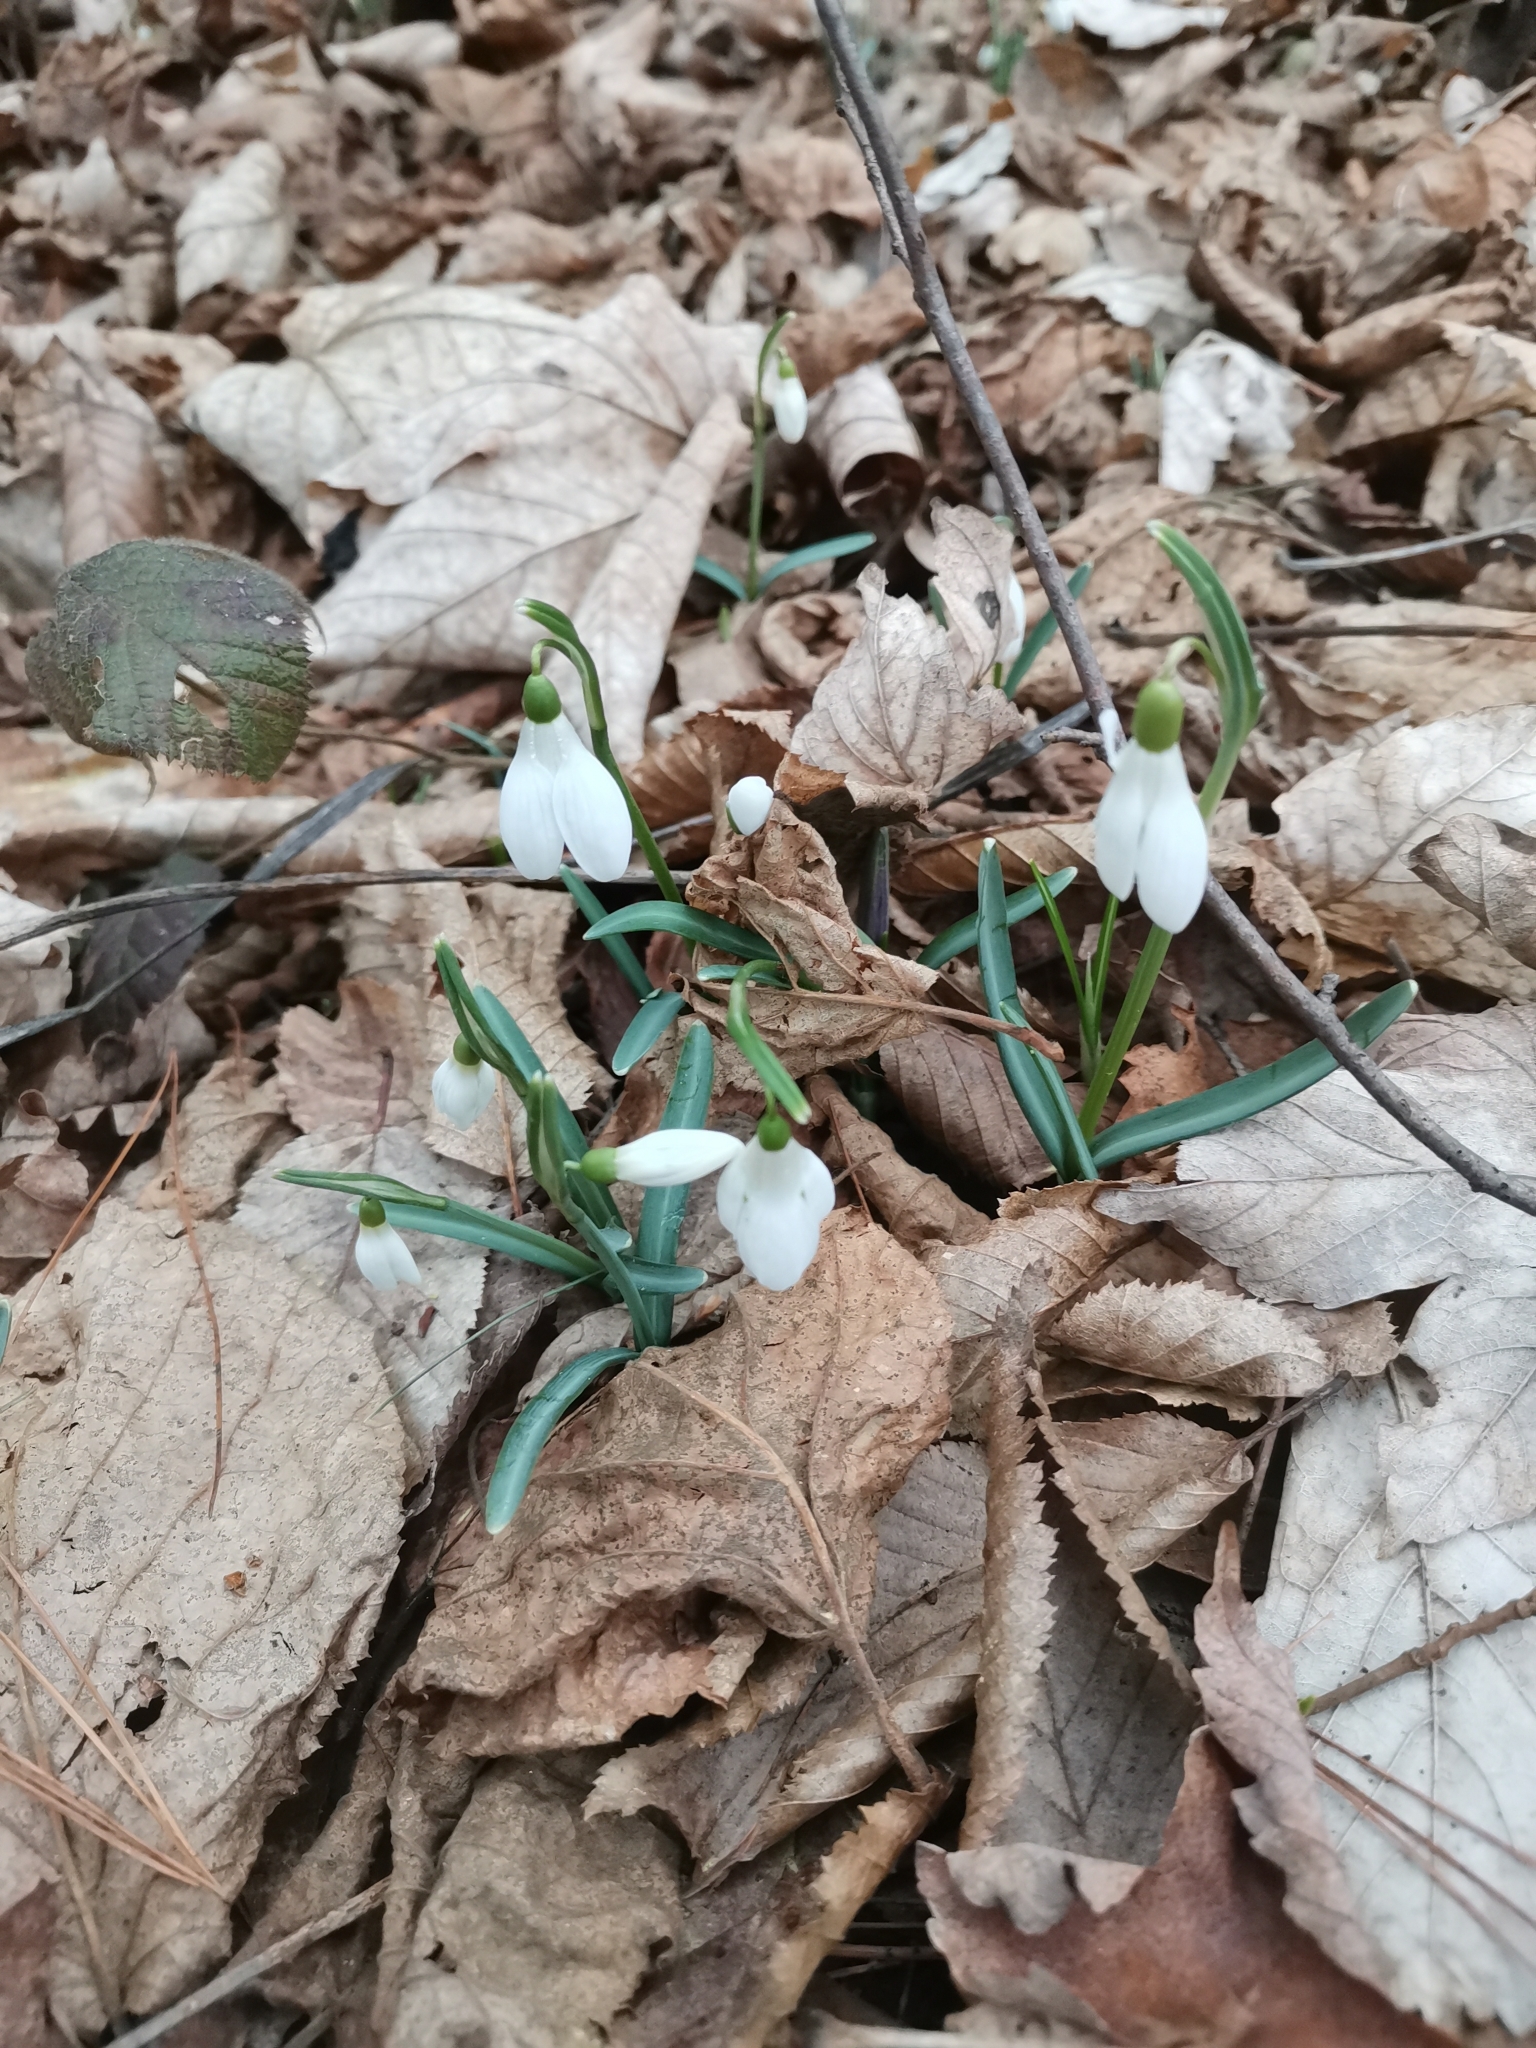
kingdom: Plantae
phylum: Tracheophyta
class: Liliopsida
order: Asparagales
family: Amaryllidaceae
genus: Galanthus
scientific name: Galanthus nivalis
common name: Snowdrop
